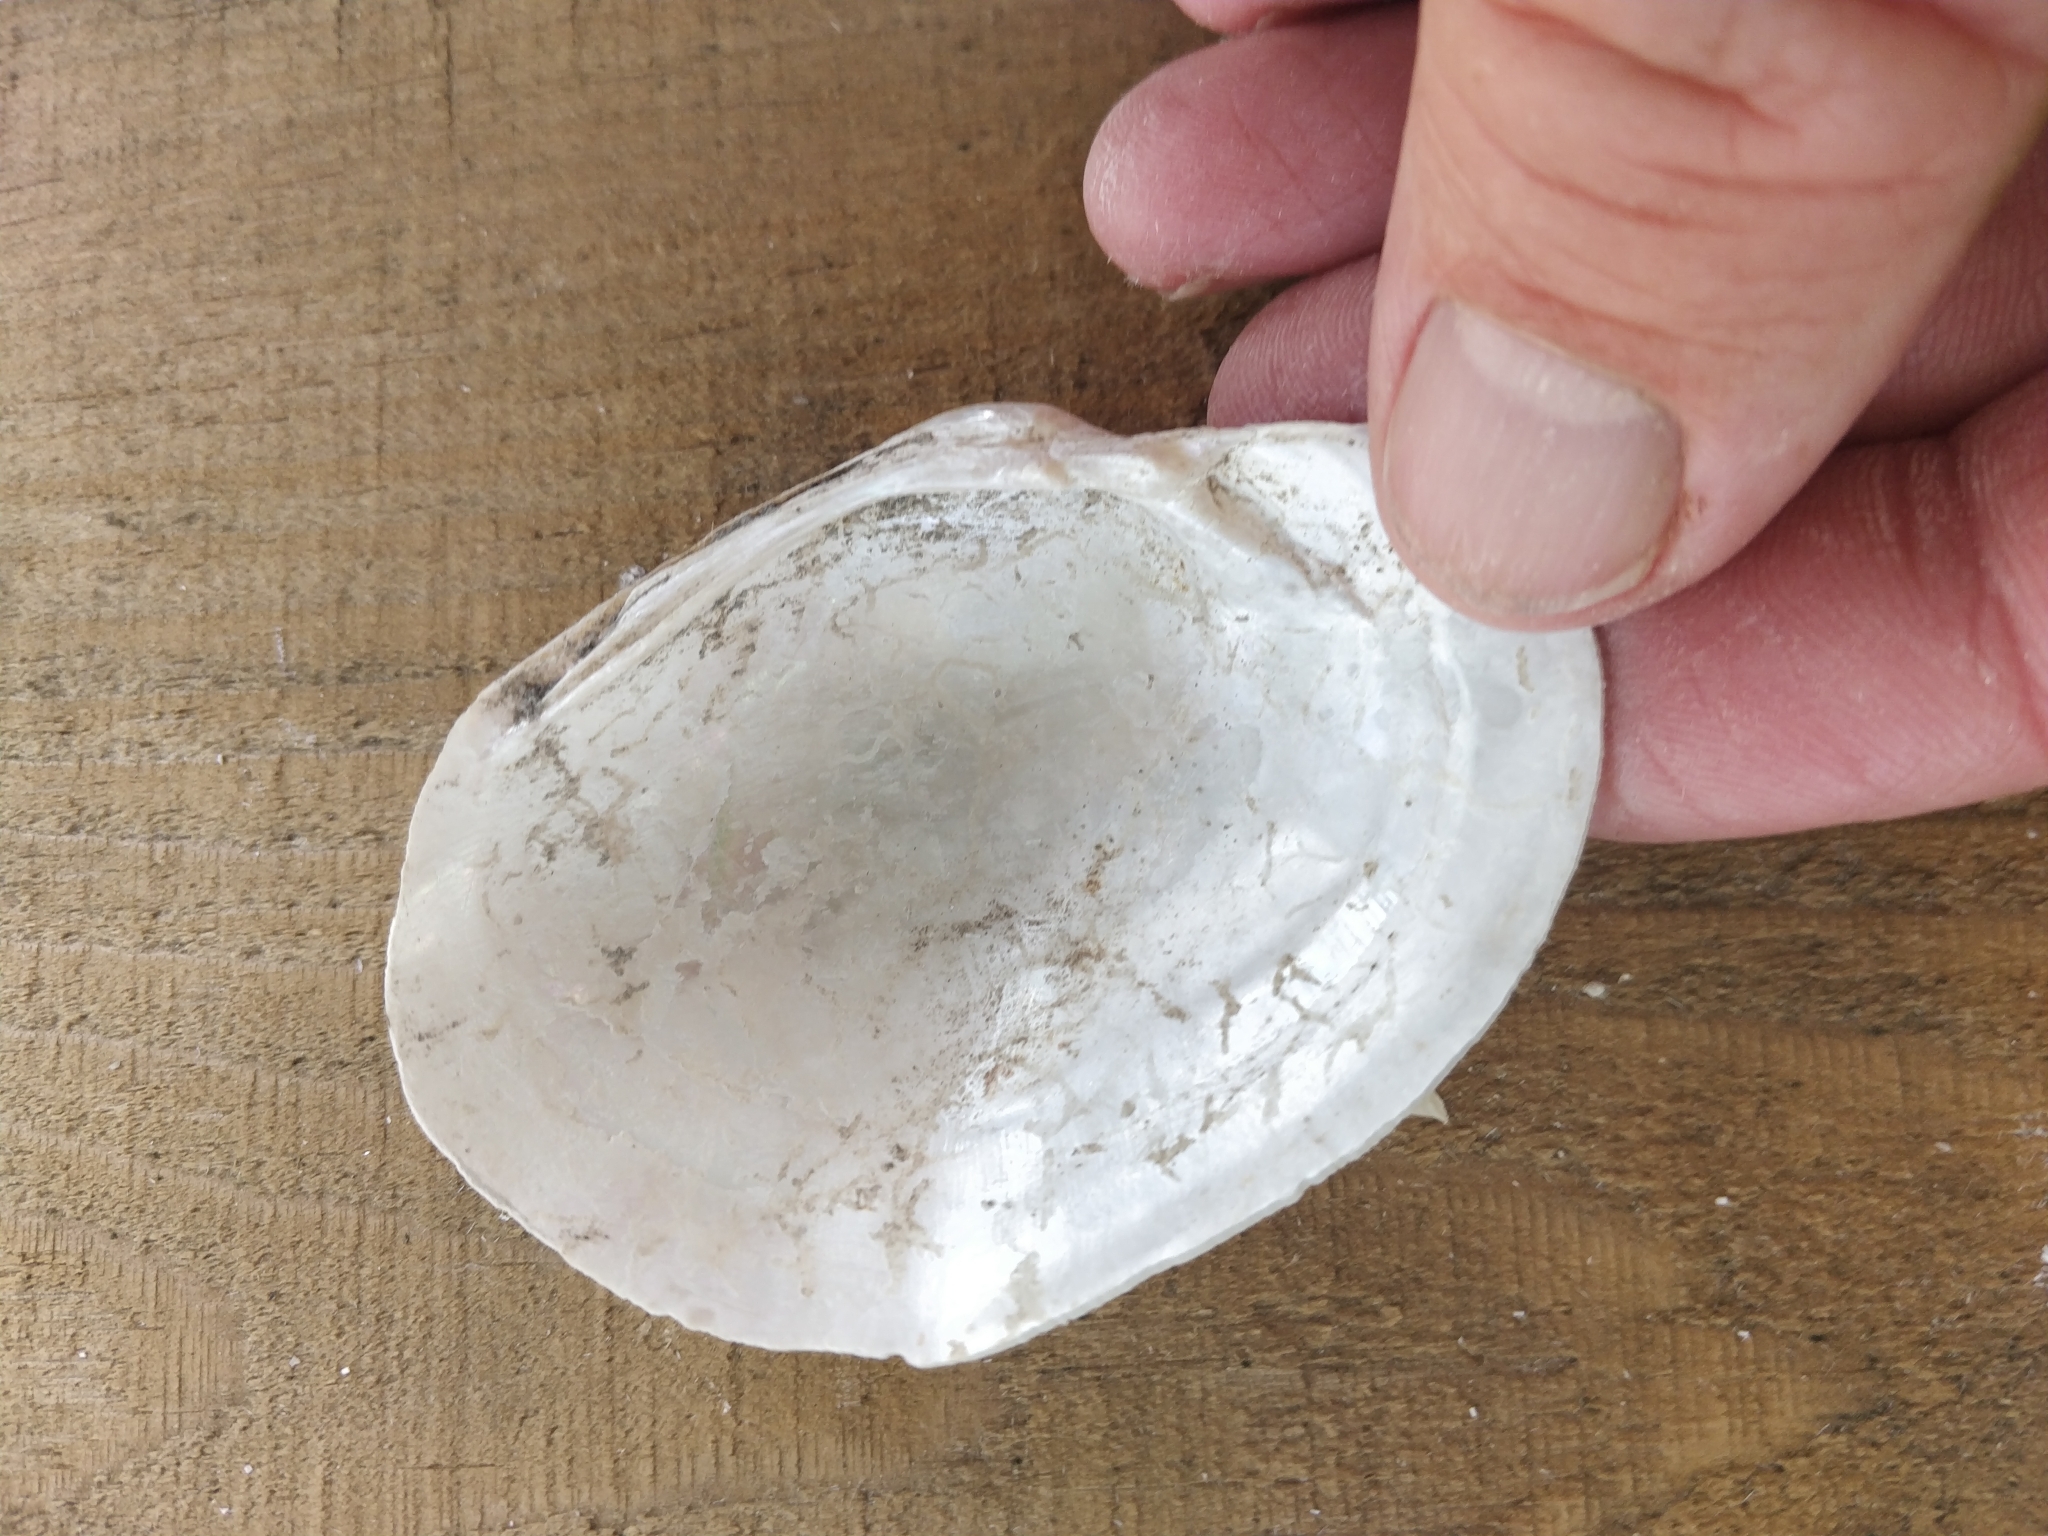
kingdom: Animalia
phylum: Mollusca
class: Bivalvia
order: Unionida
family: Unionidae
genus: Lampsilis
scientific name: Lampsilis cardium
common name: Plain pocketbook
